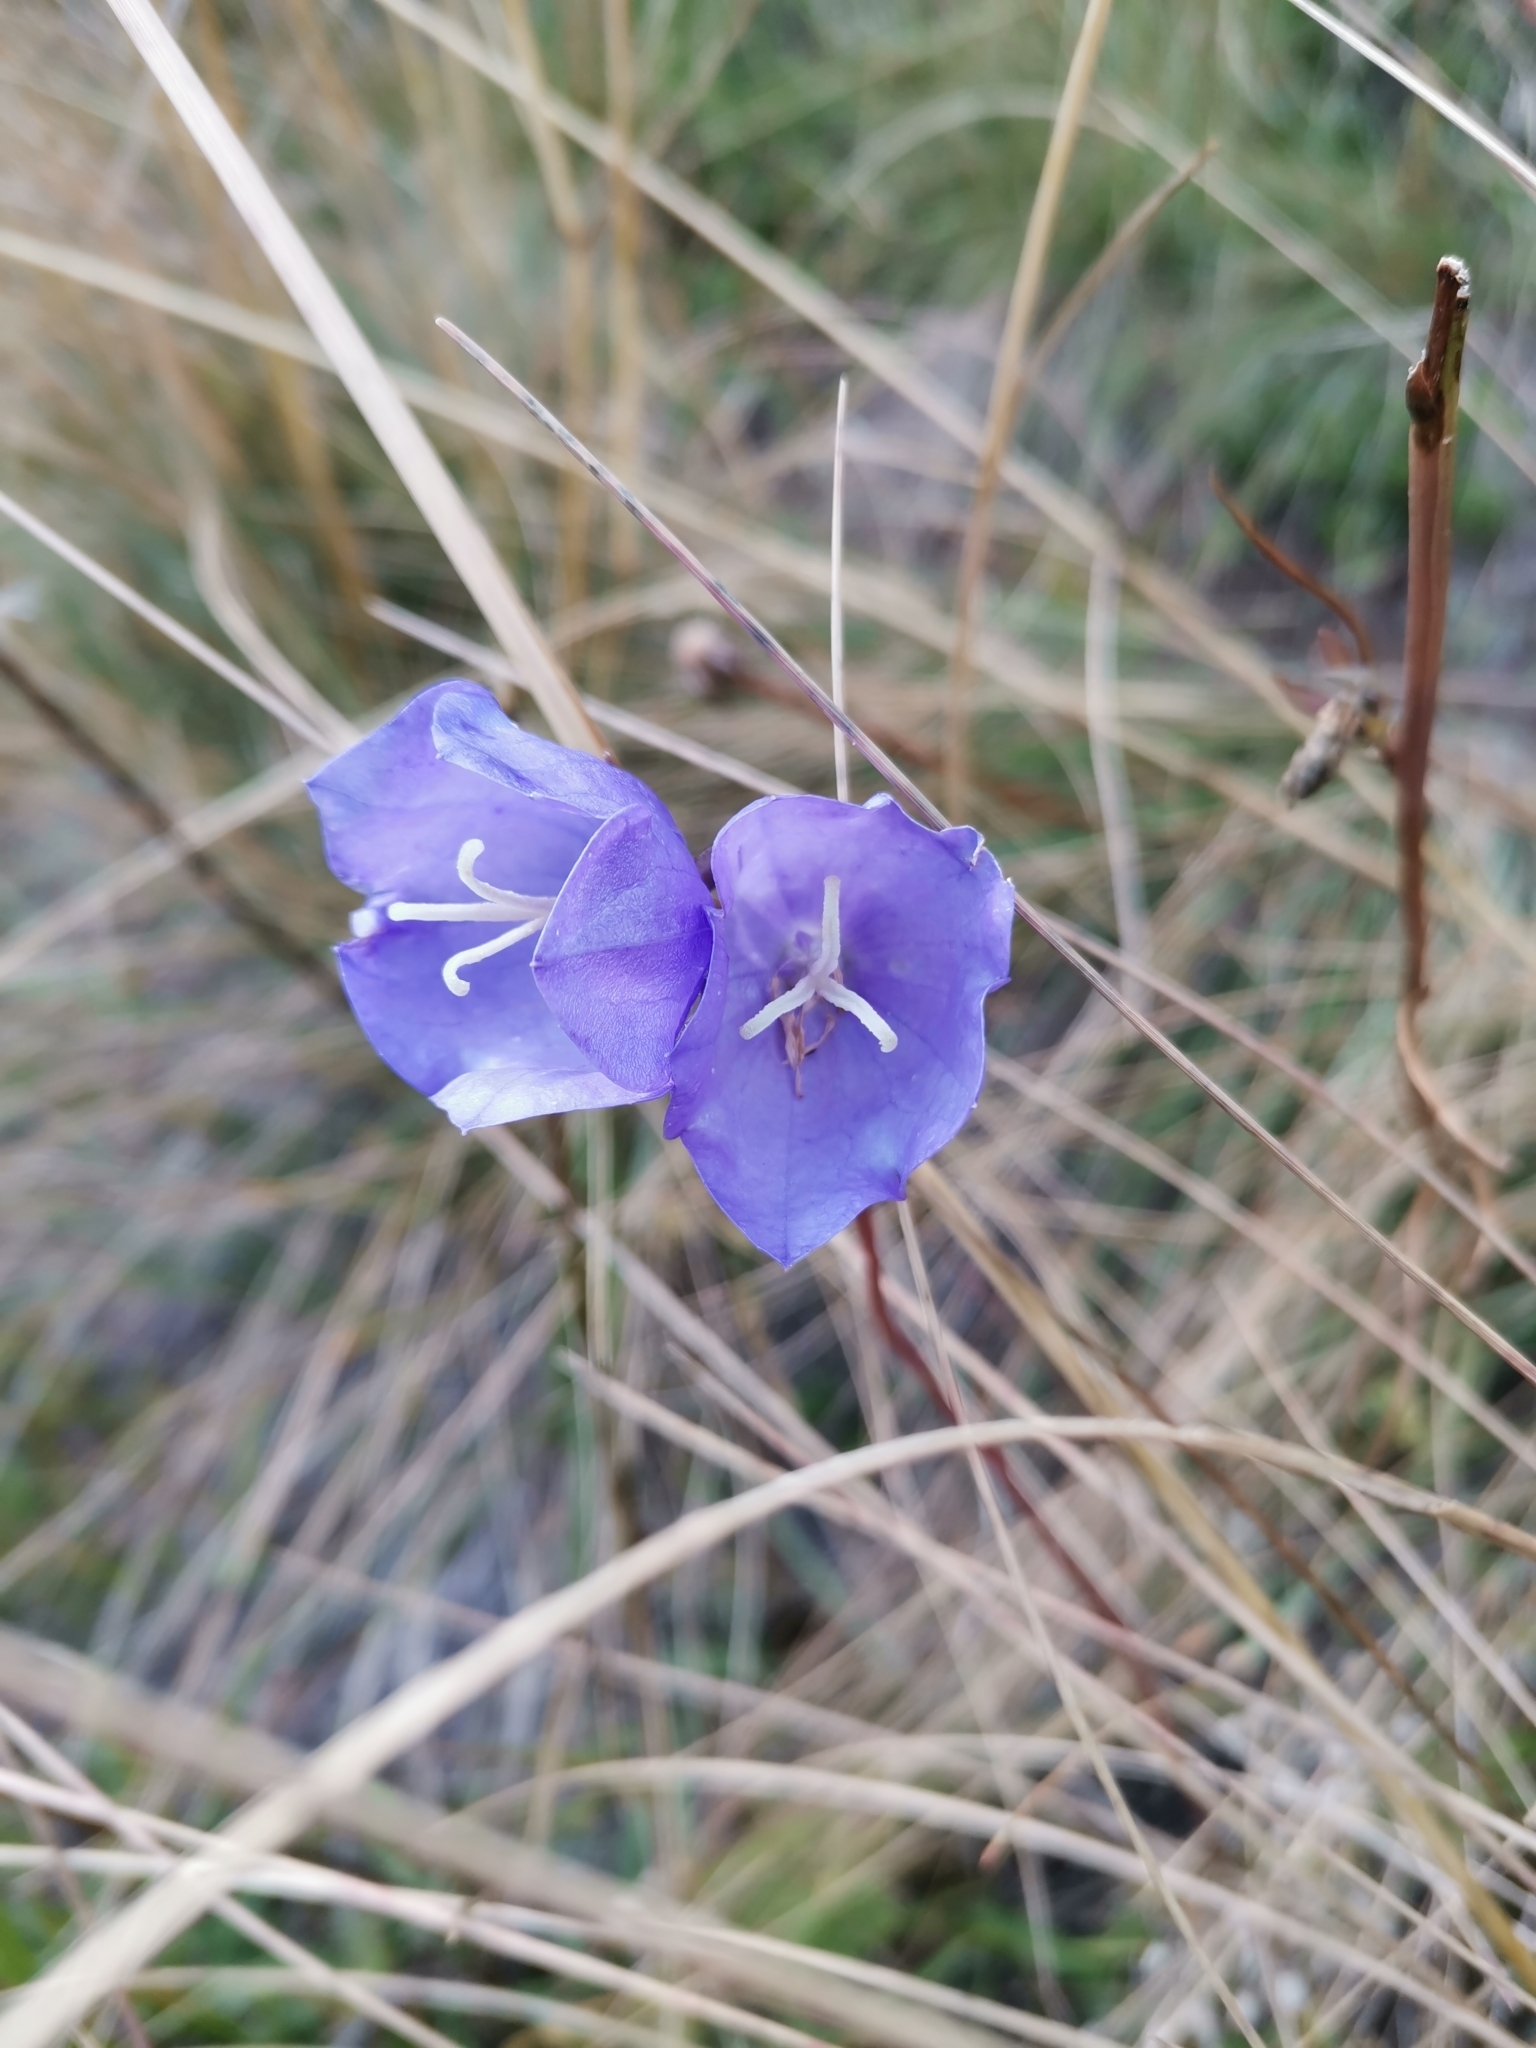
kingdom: Plantae
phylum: Tracheophyta
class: Magnoliopsida
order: Asterales
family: Campanulaceae
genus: Campanula
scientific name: Campanula persicifolia
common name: Peach-leaved bellflower
